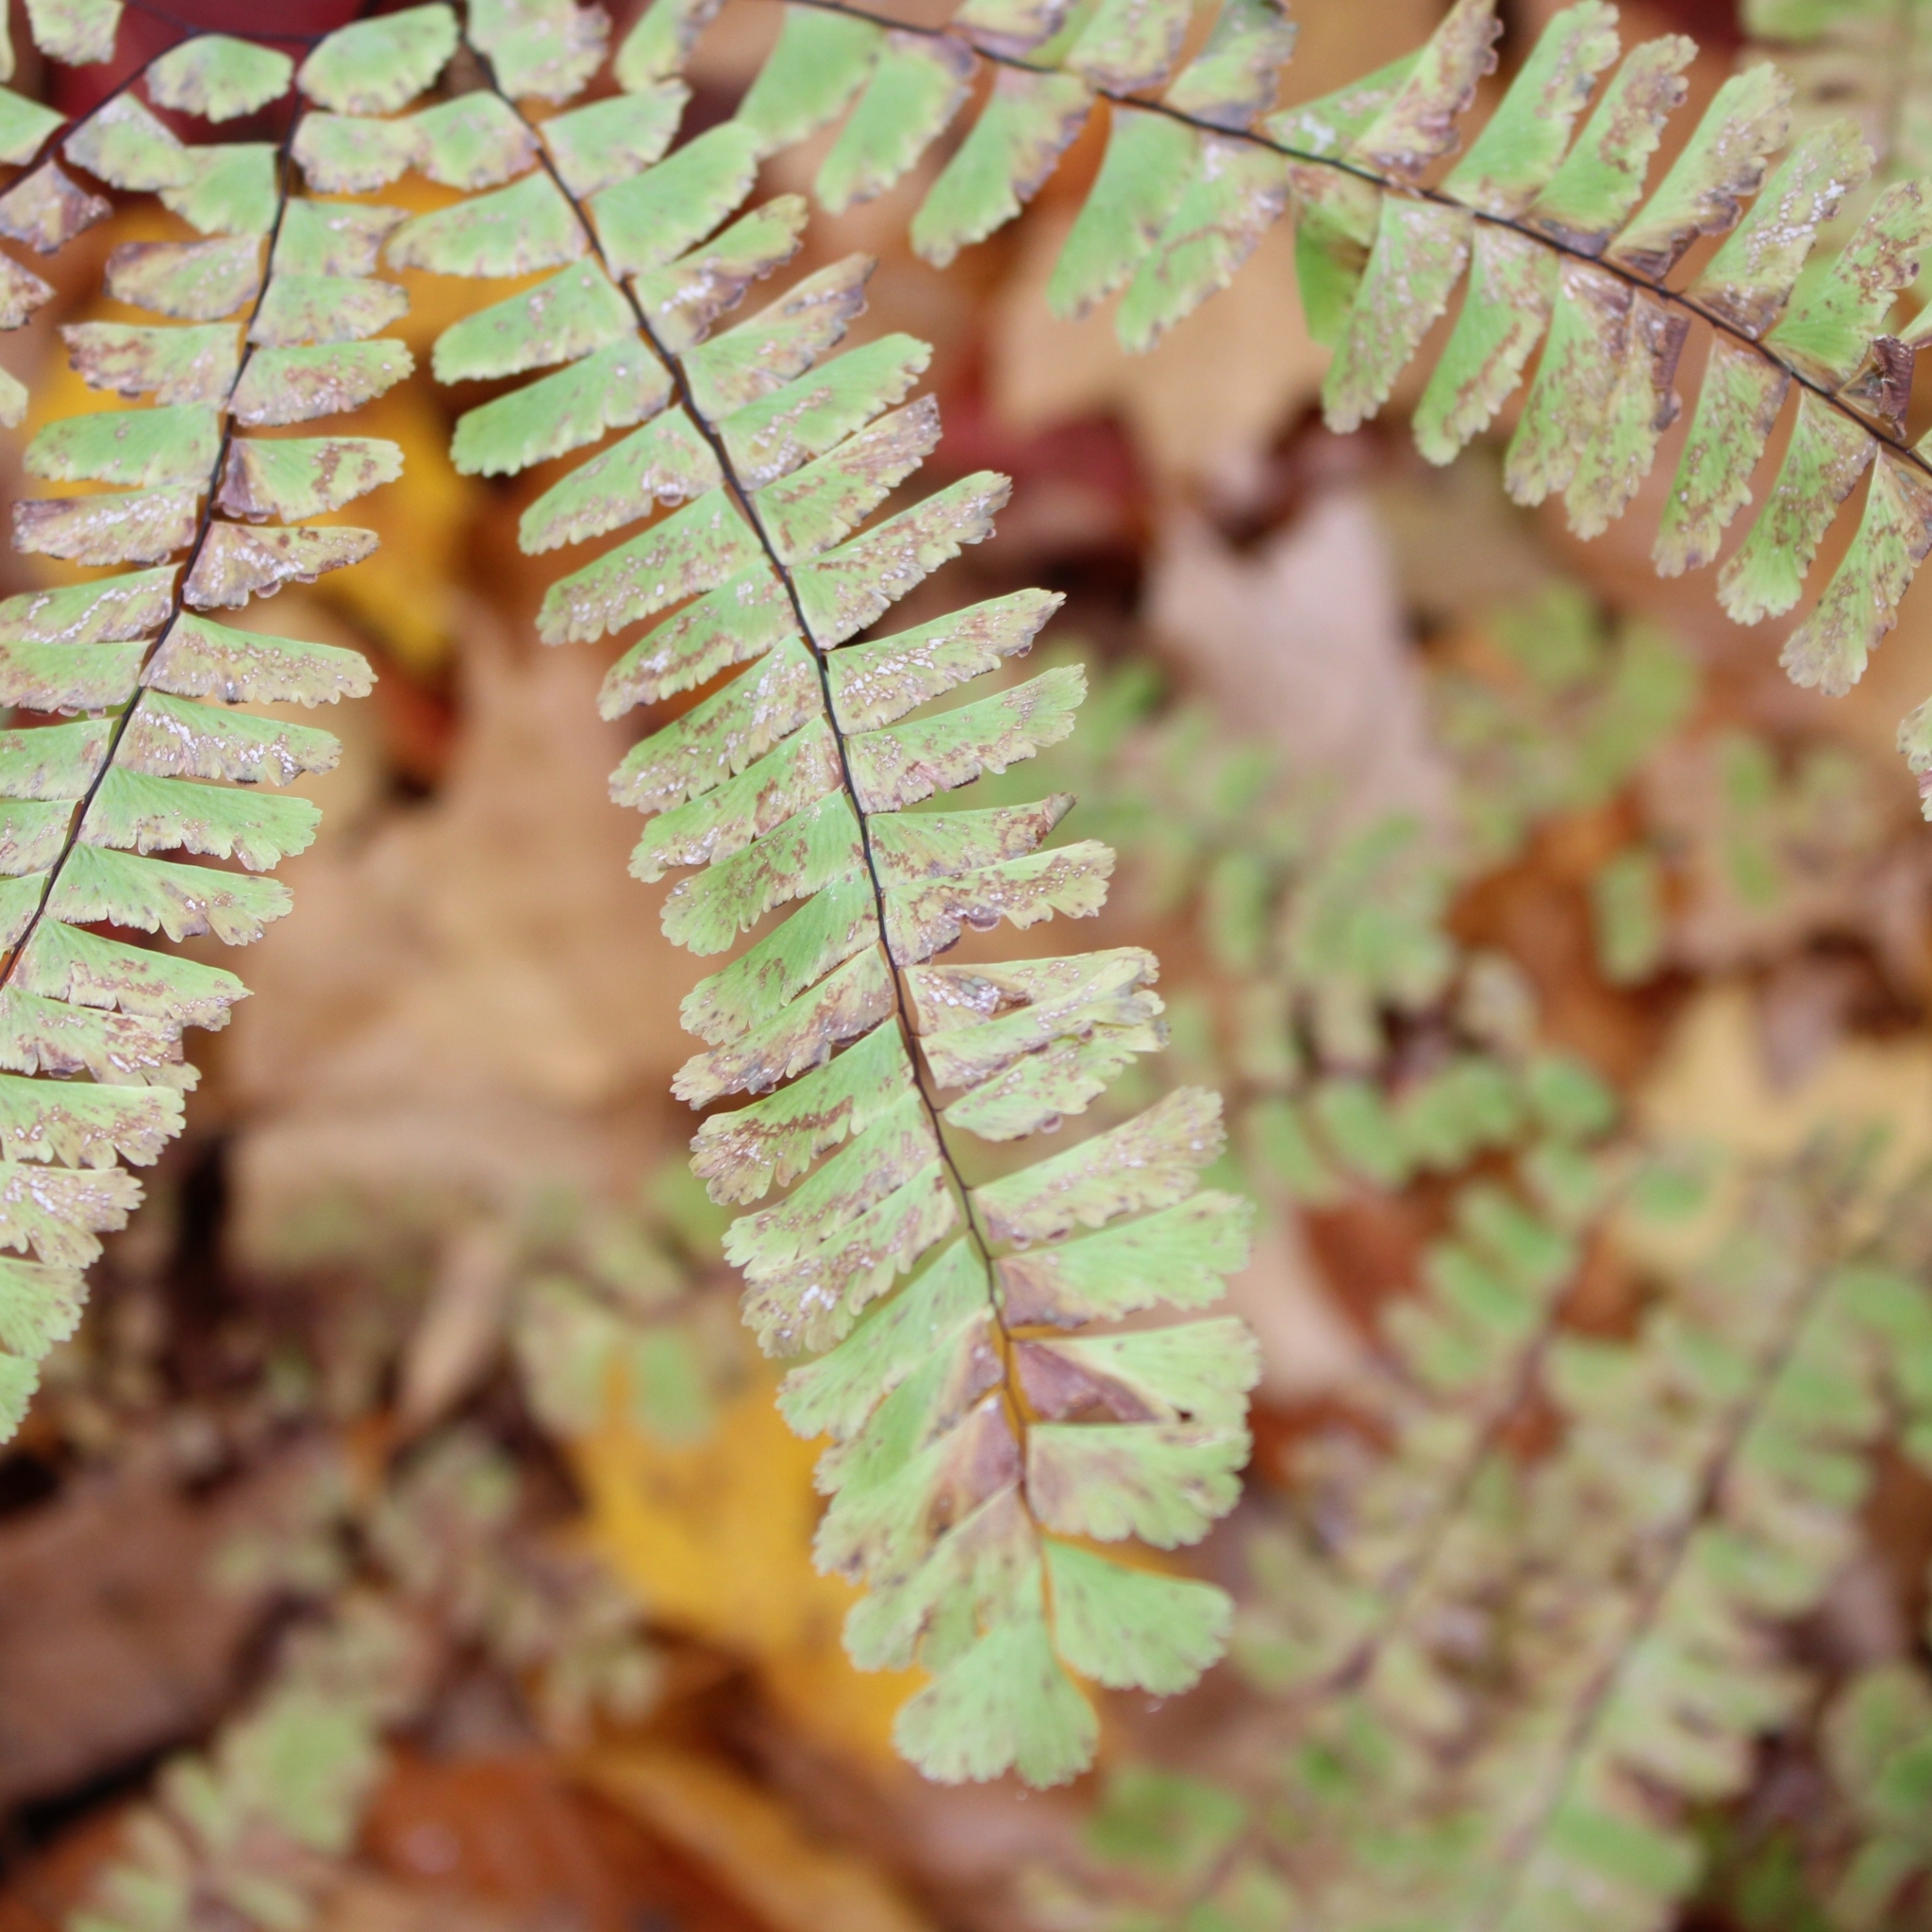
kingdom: Plantae
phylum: Tracheophyta
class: Polypodiopsida
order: Polypodiales
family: Pteridaceae
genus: Adiantum
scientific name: Adiantum pedatum
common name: Five-finger fern
